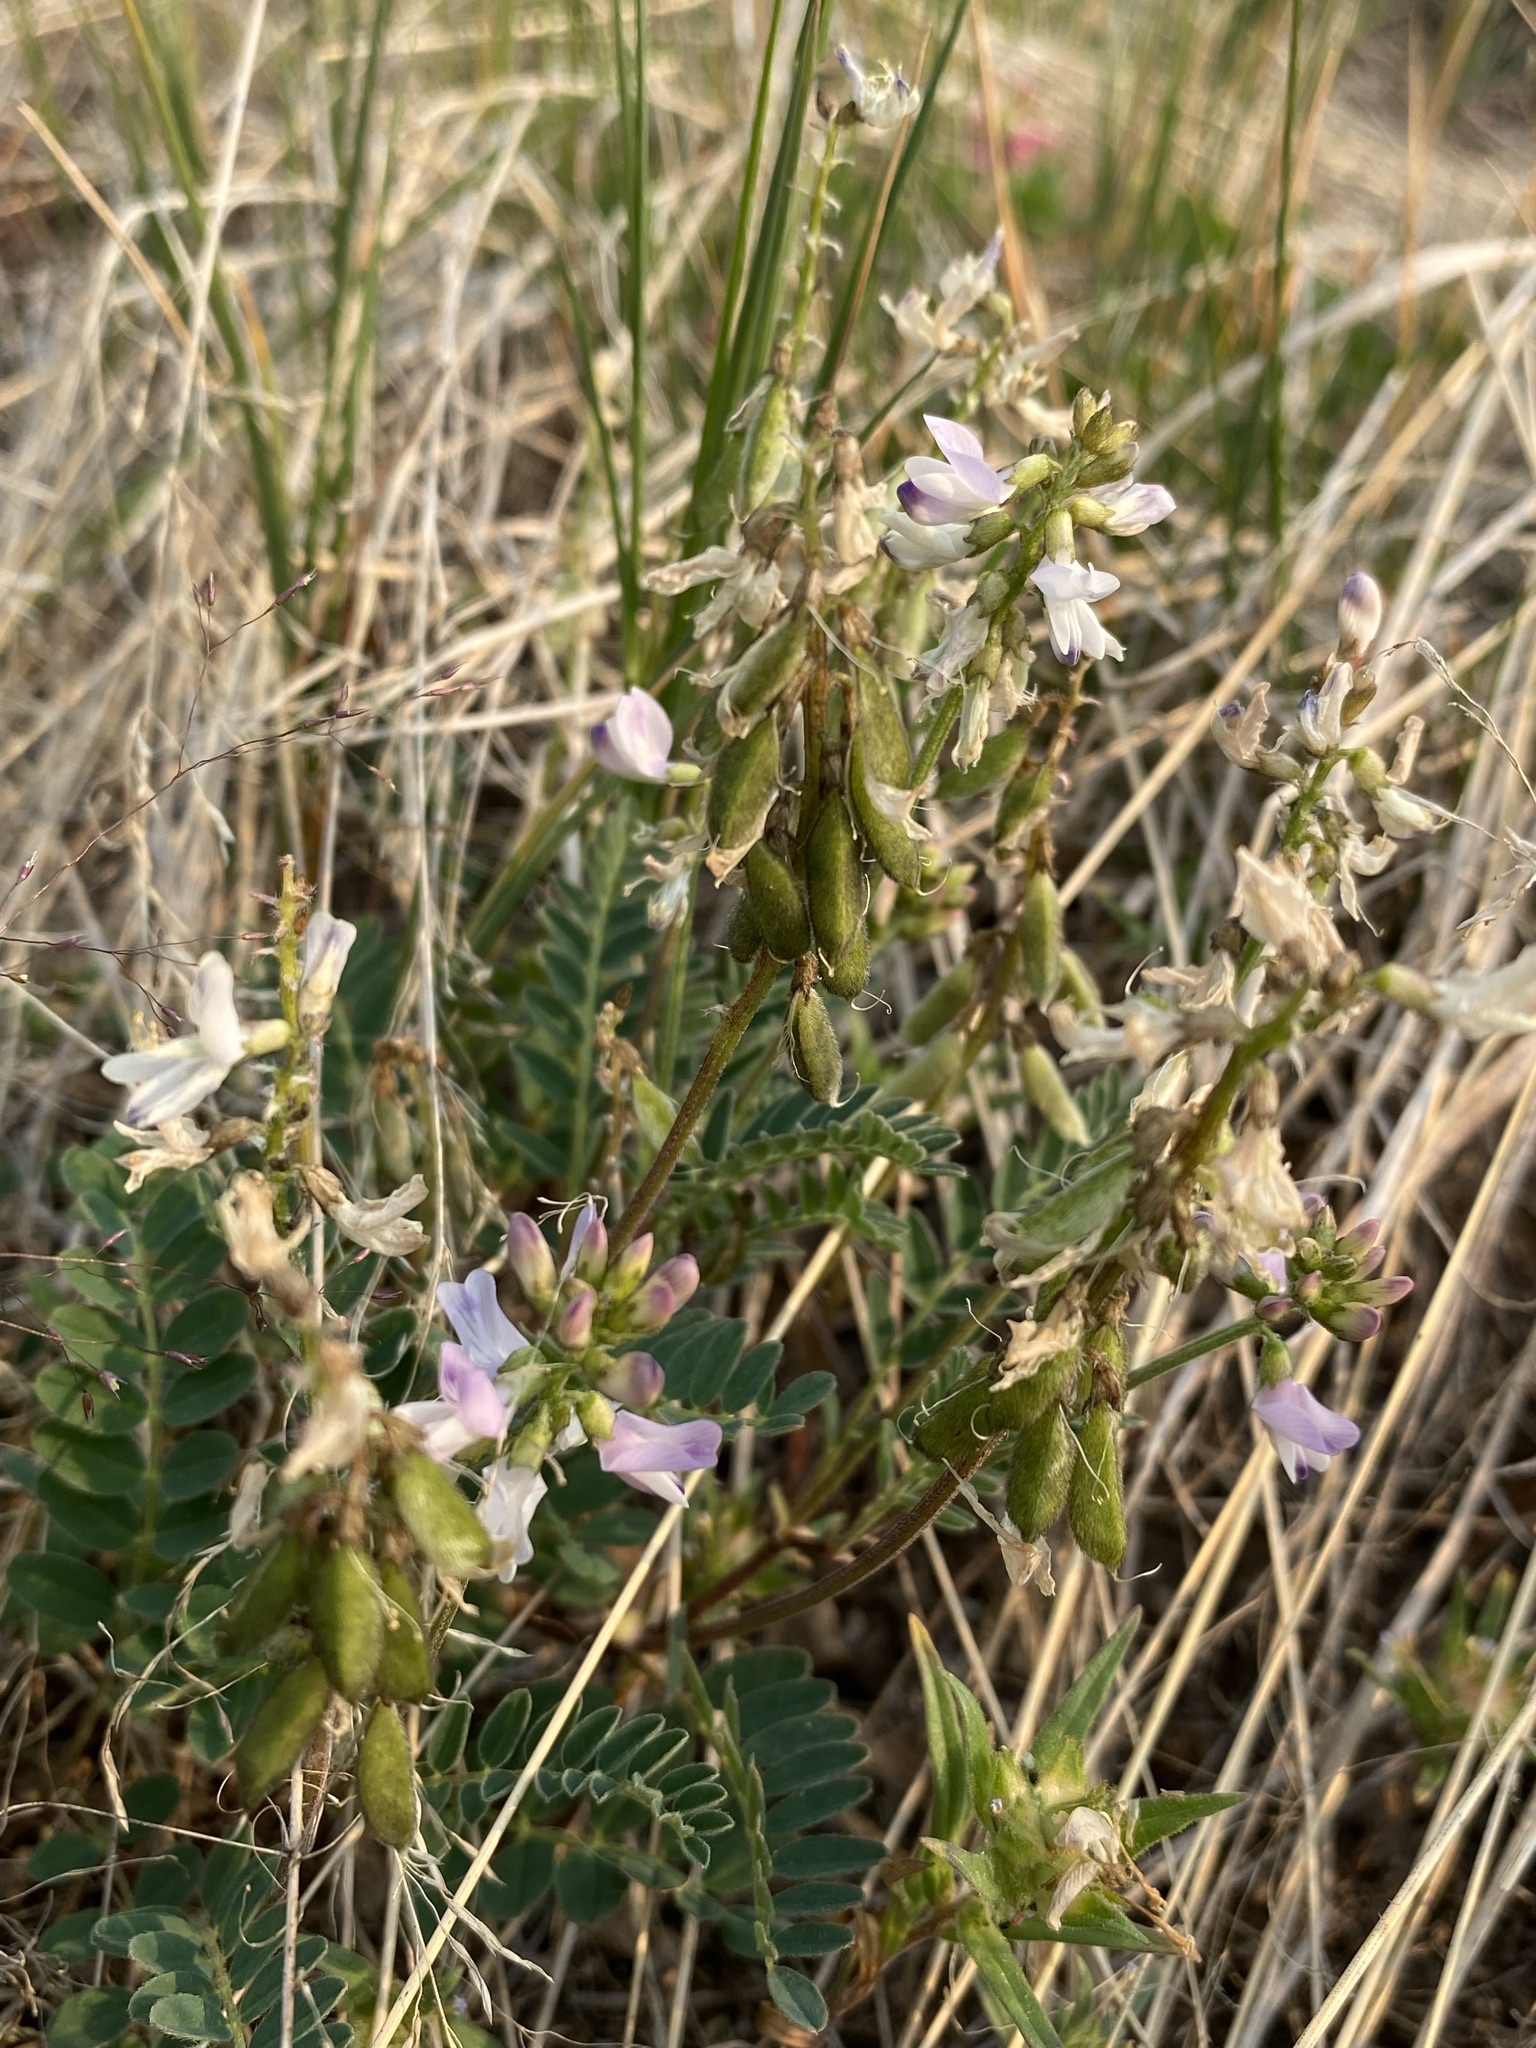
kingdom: Plantae
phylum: Tracheophyta
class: Magnoliopsida
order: Fabales
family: Fabaceae
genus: Astragalus
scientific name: Astragalus alpinus
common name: Alpine milk-vetch
